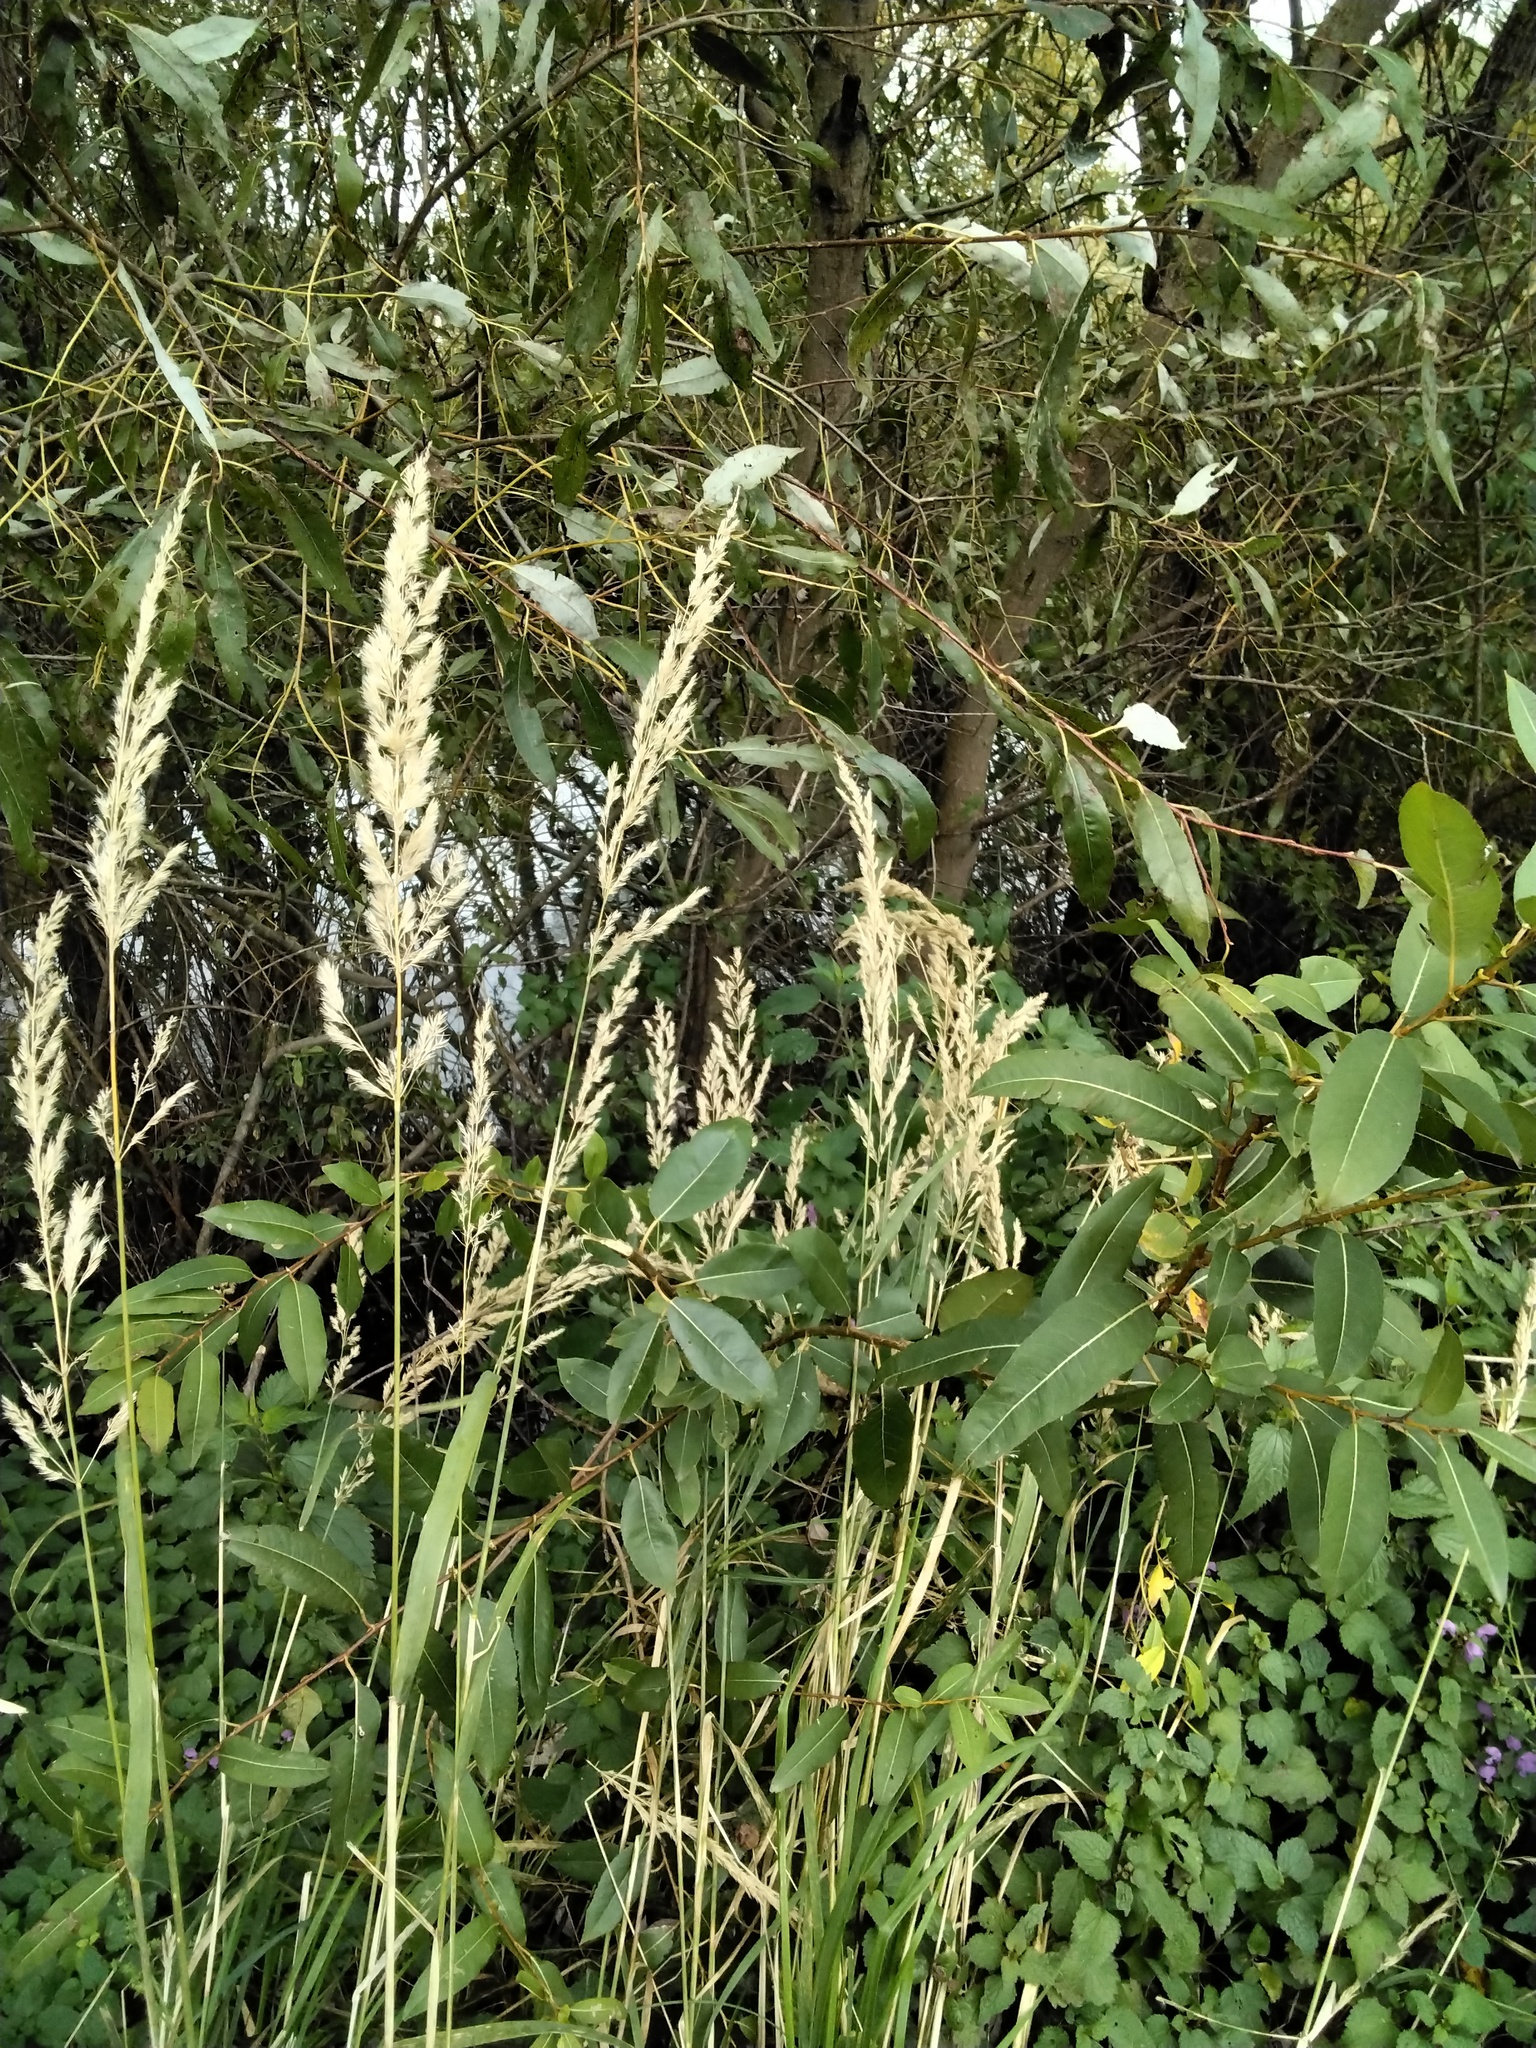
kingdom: Plantae
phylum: Tracheophyta
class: Liliopsida
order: Poales
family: Poaceae
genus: Calamagrostis
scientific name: Calamagrostis epigejos
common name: Wood small-reed
